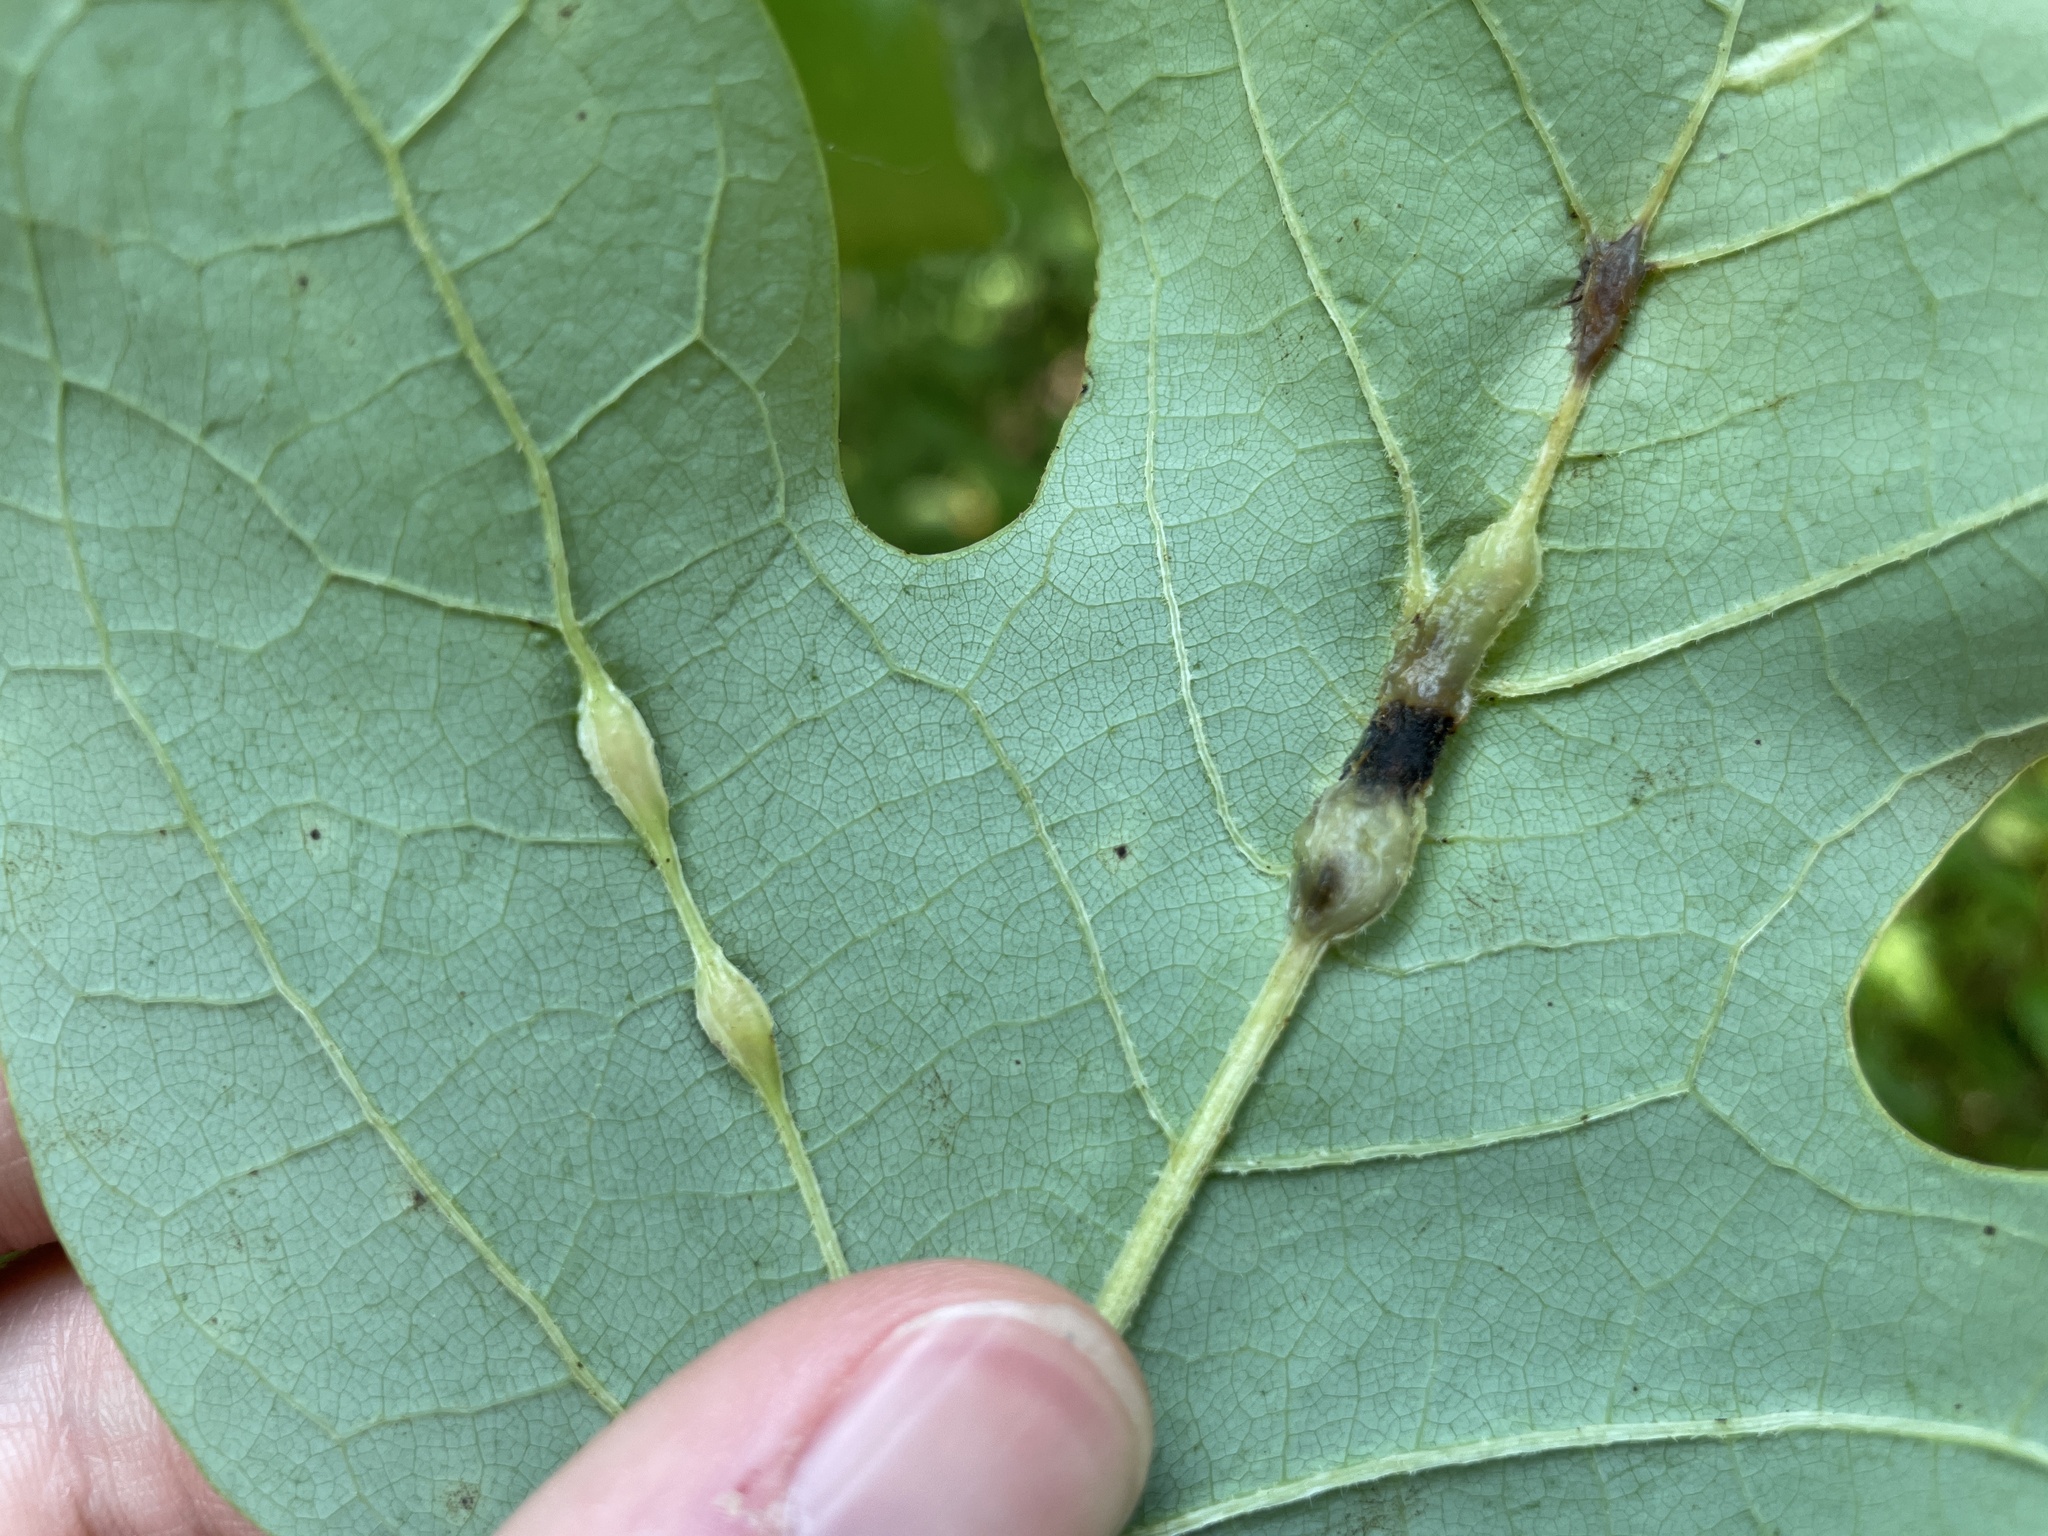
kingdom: Animalia
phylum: Arthropoda
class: Insecta
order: Diptera
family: Cecidomyiidae
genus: Resseliella
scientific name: Resseliella tulipiferae
